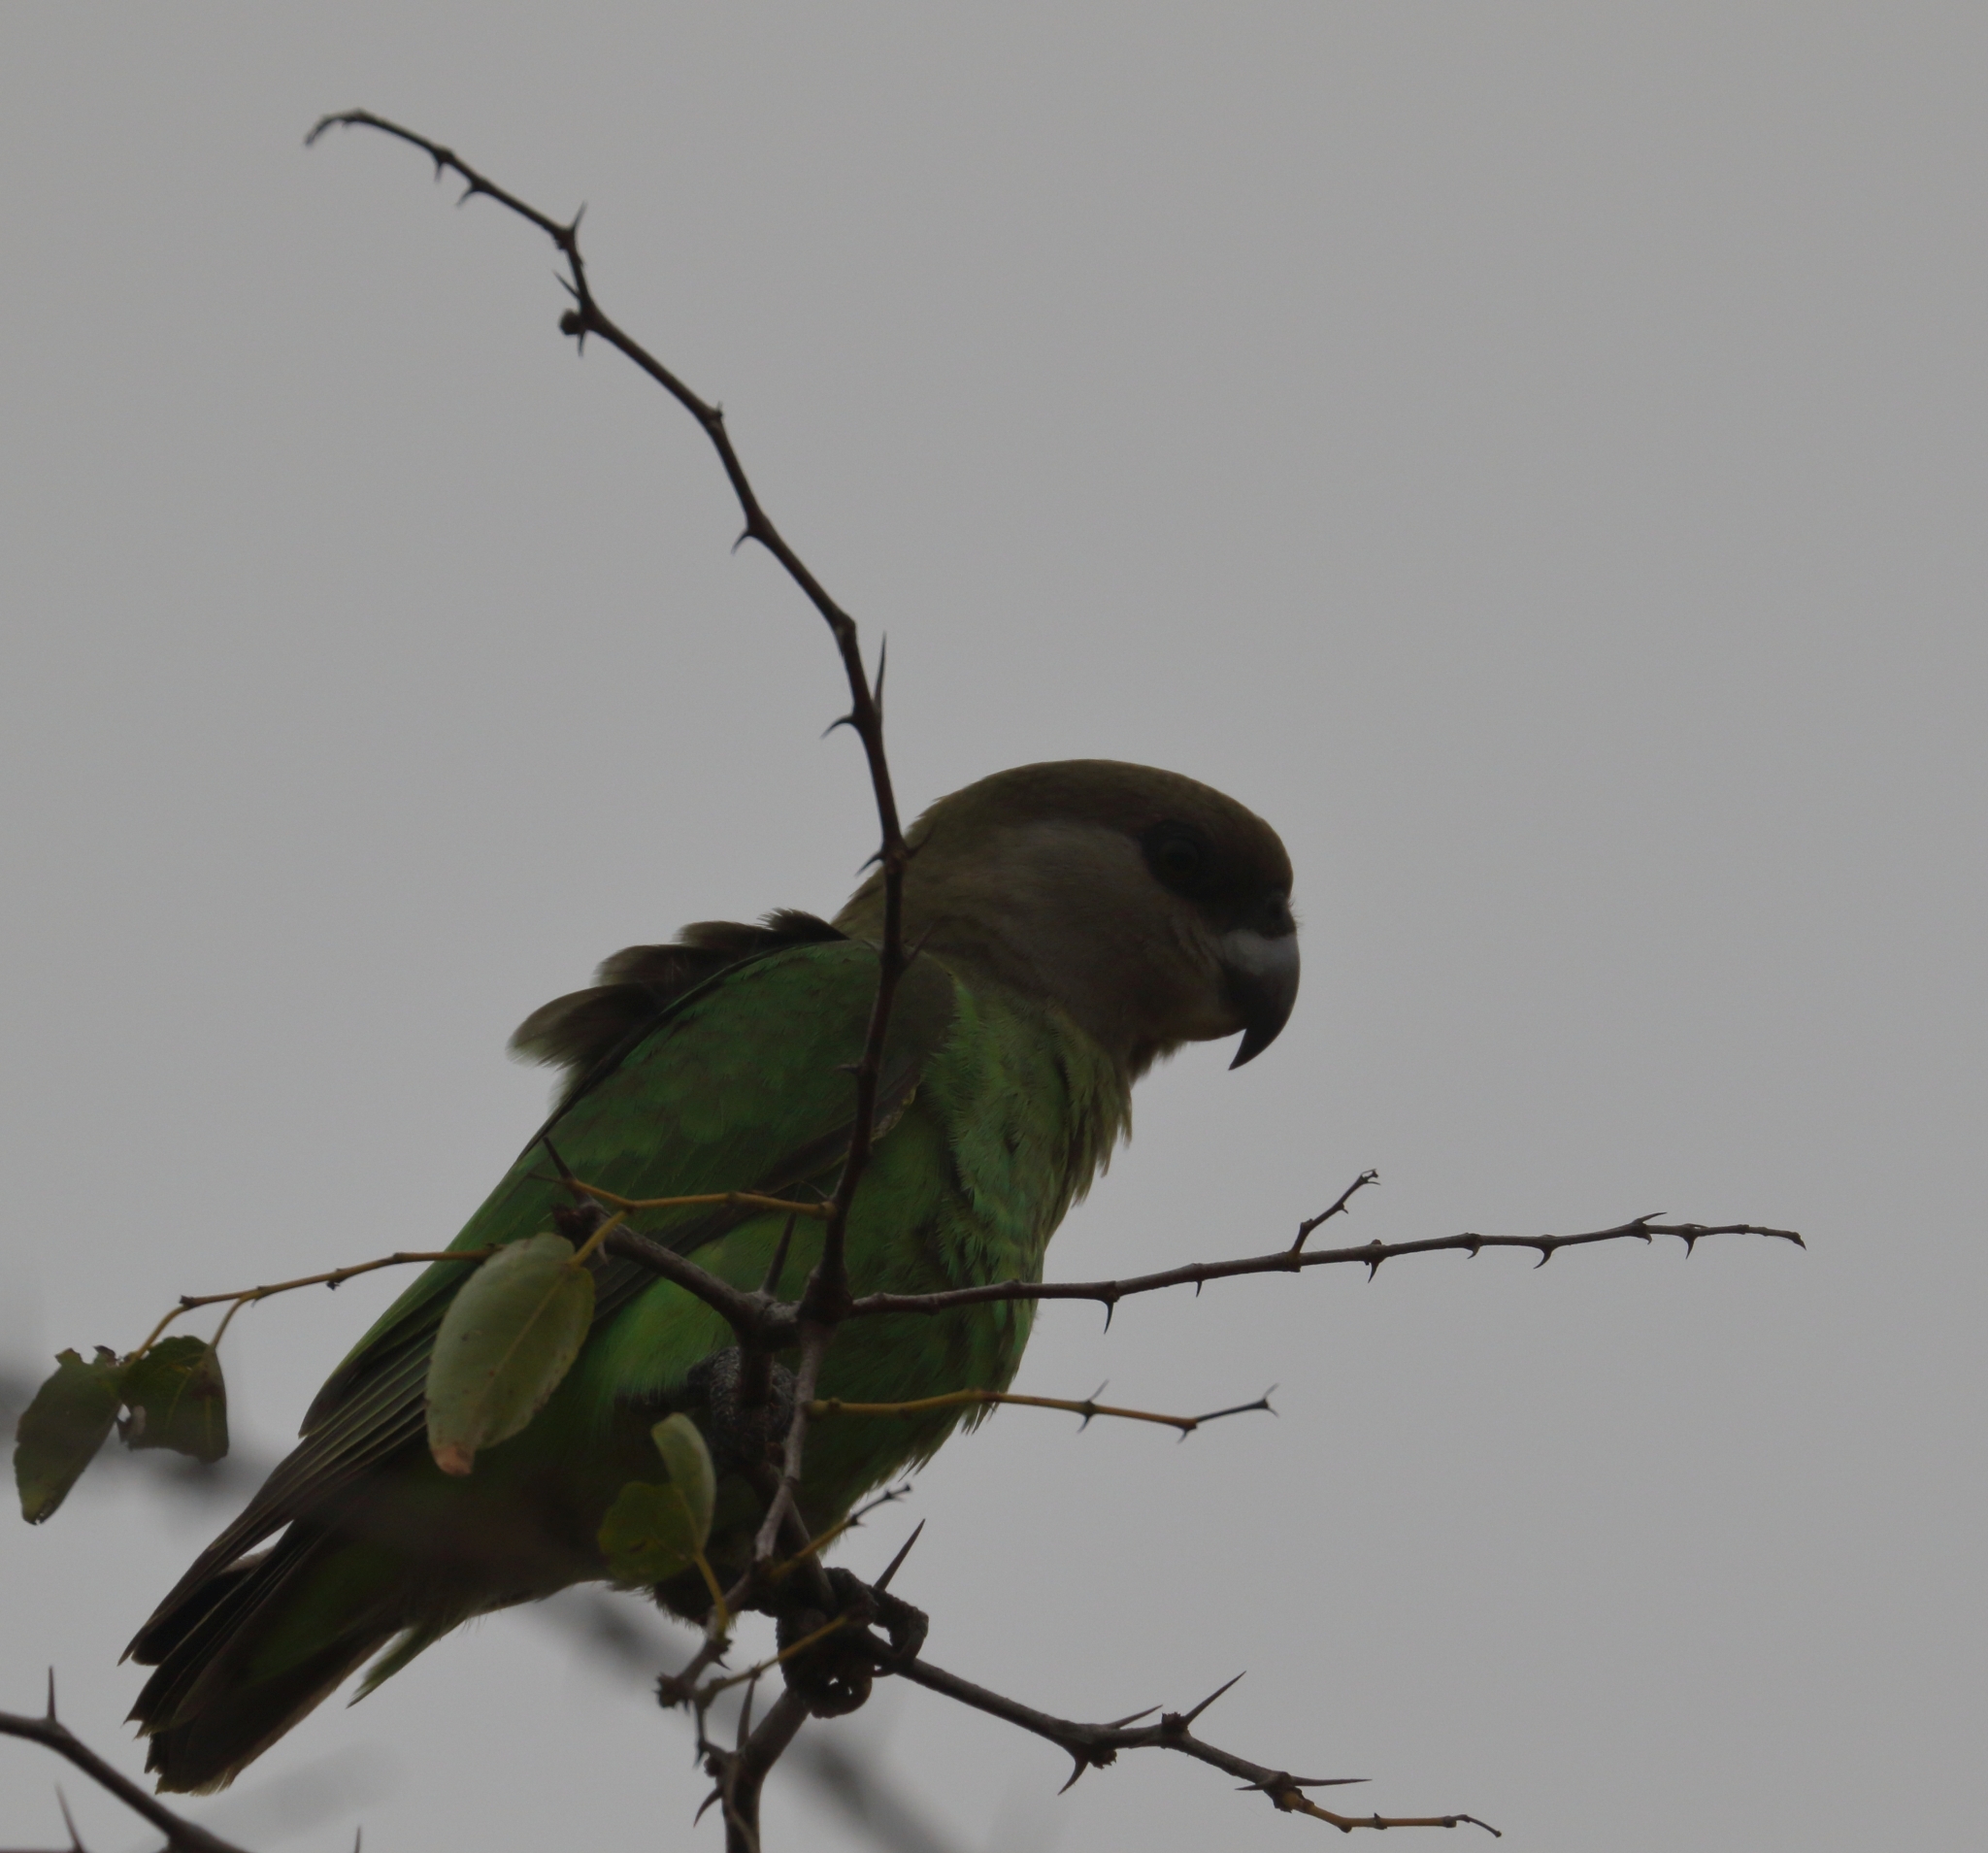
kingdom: Animalia
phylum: Chordata
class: Aves
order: Psittaciformes
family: Psittacidae
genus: Poicephalus
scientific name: Poicephalus cryptoxanthus
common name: Brown-headed parrot
